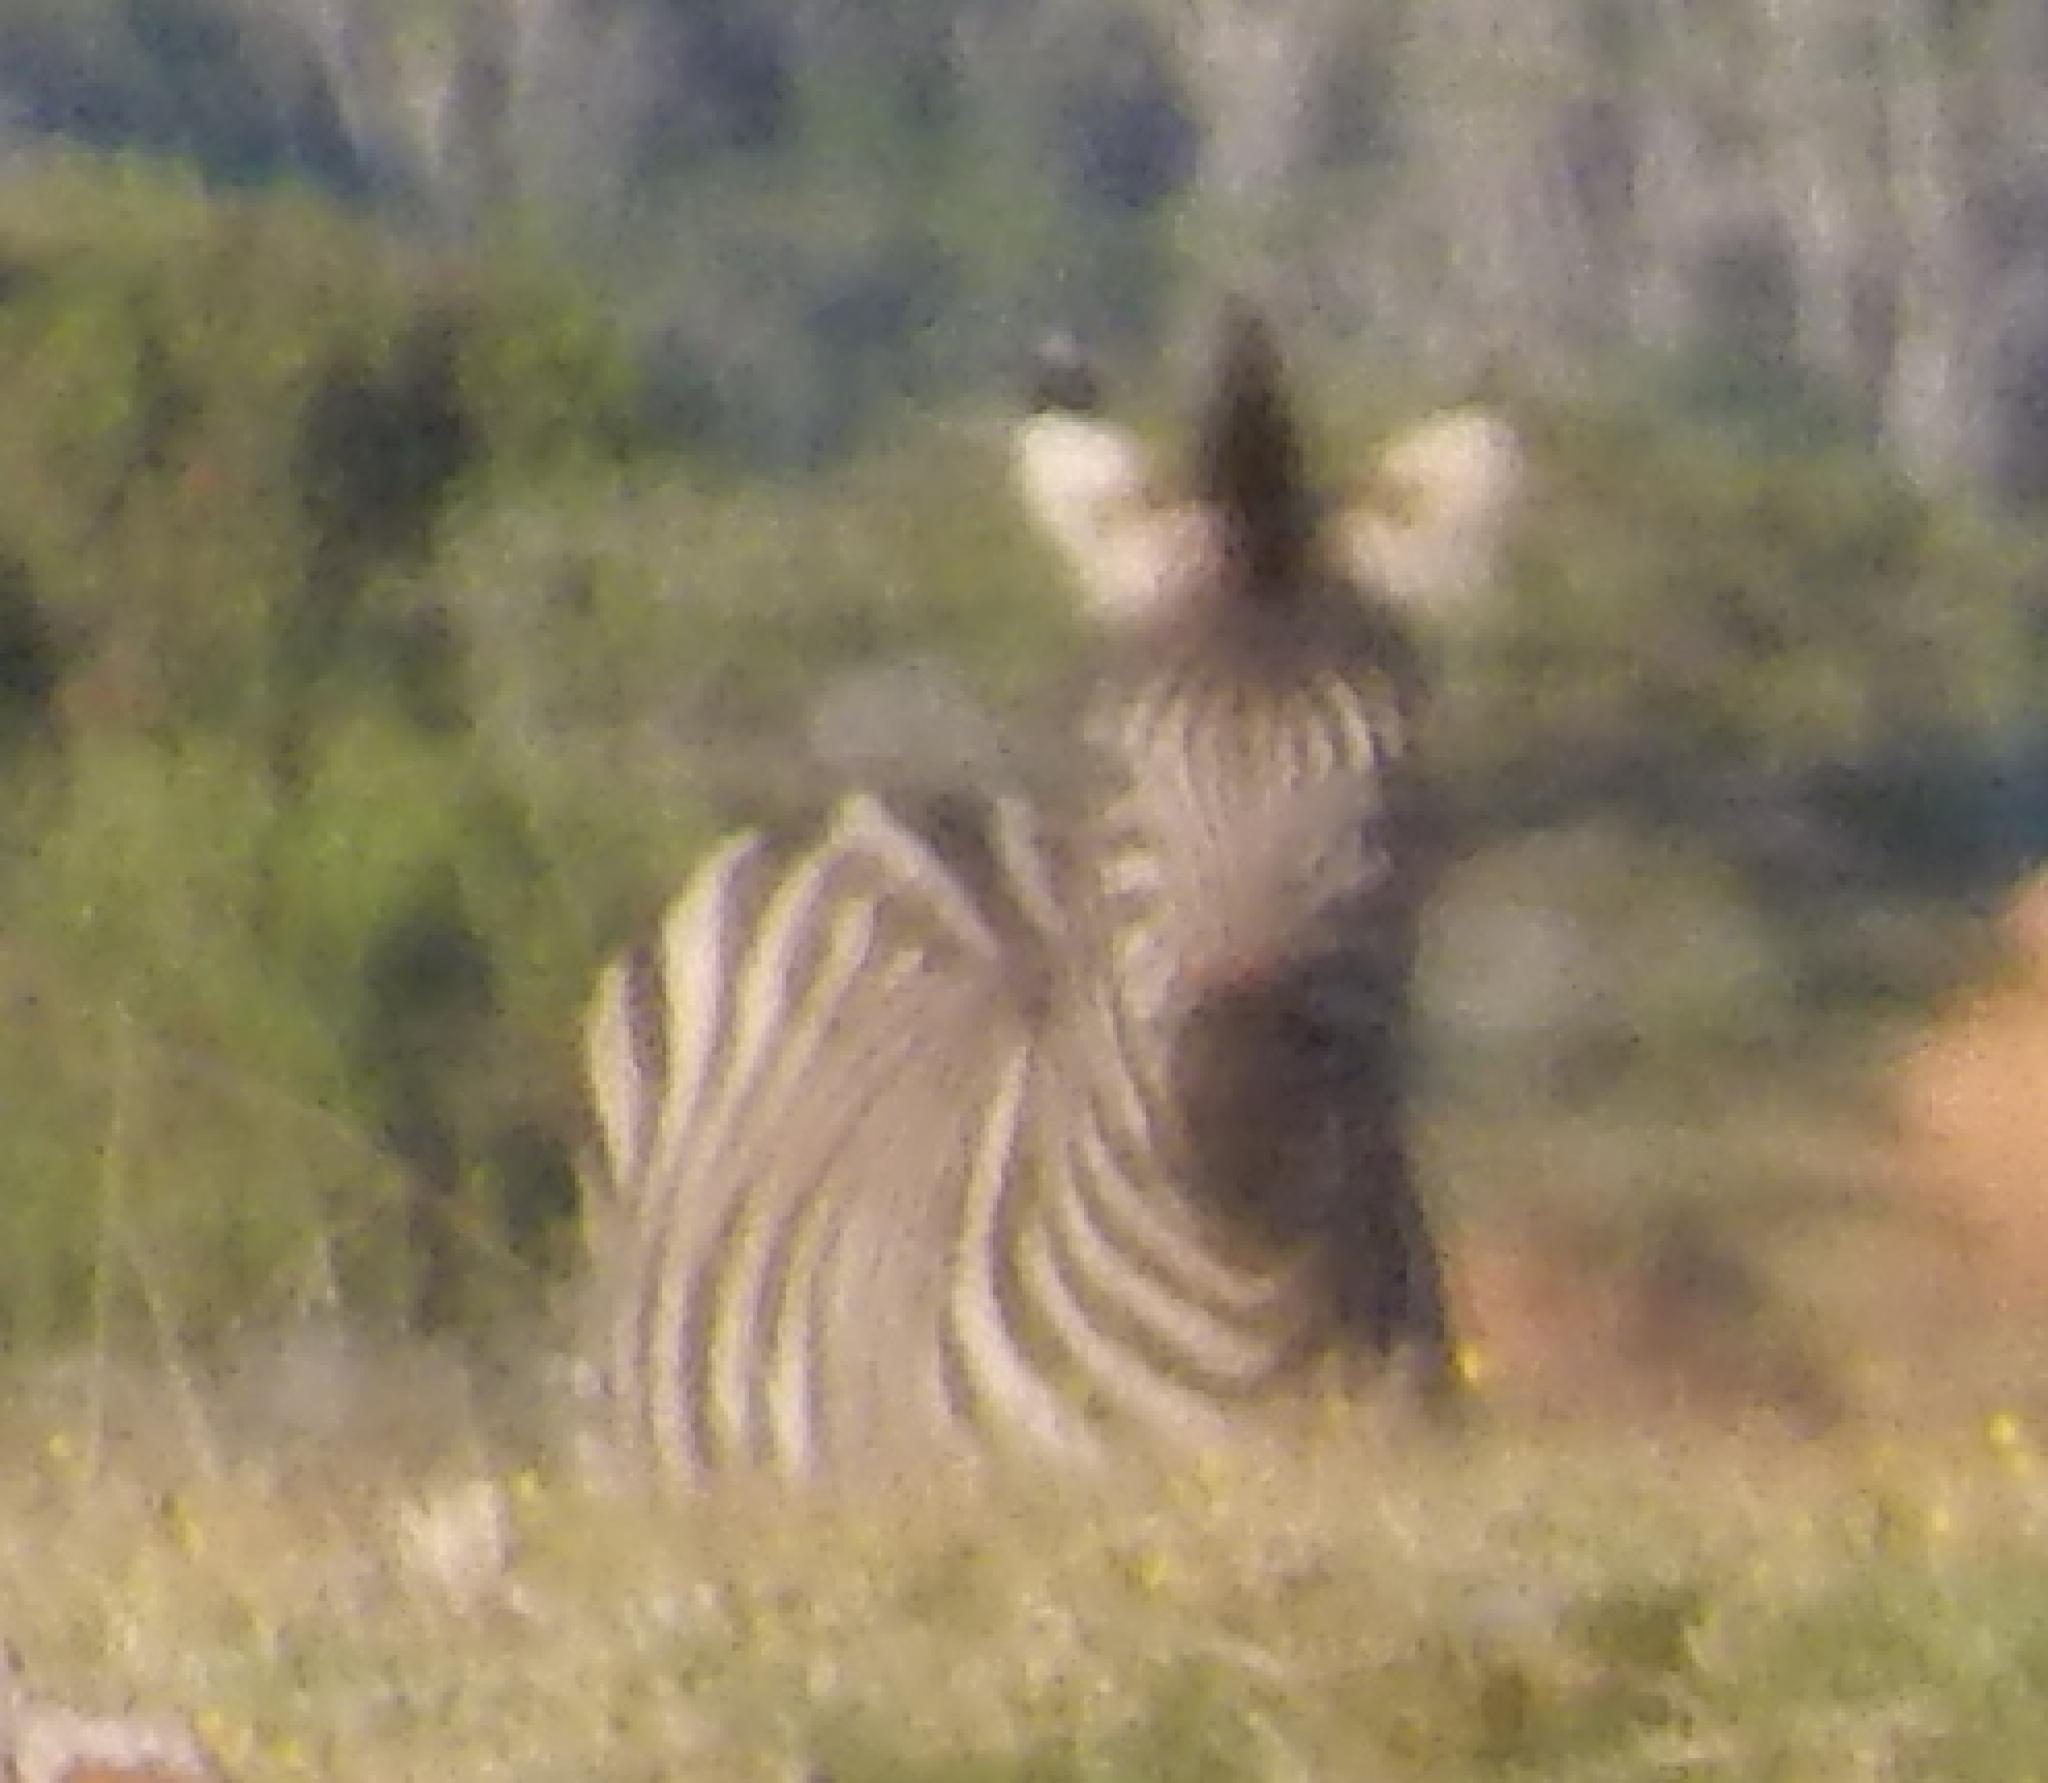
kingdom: Animalia
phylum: Chordata
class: Mammalia
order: Perissodactyla
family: Equidae
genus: Equus
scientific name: Equus quagga
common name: Plains zebra
